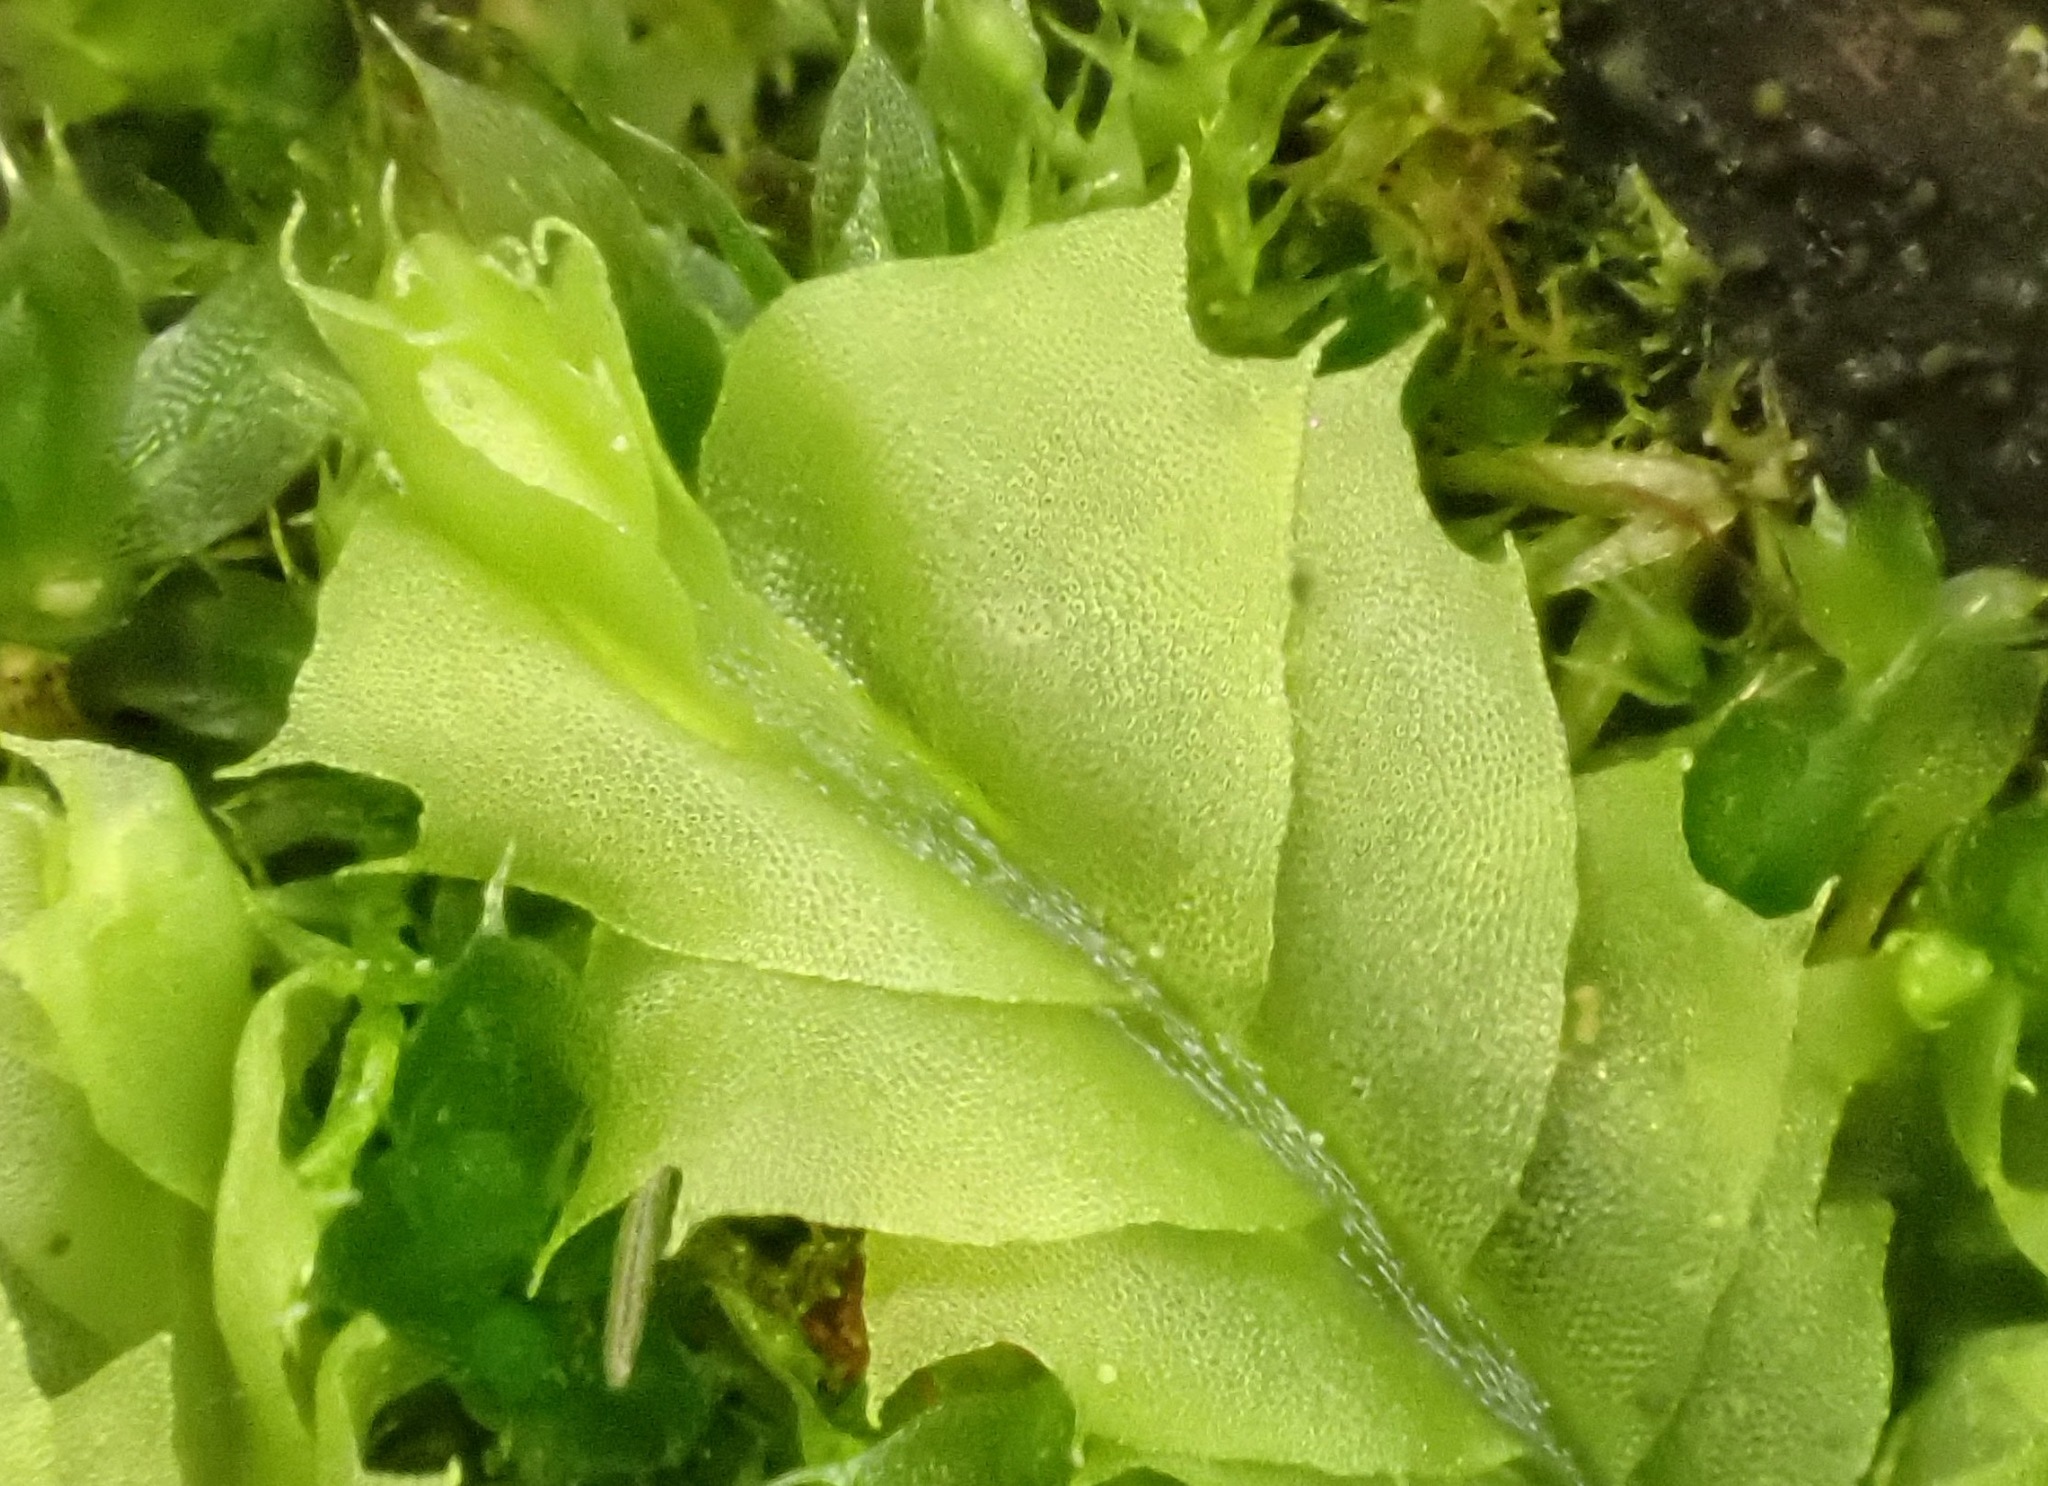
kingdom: Plantae
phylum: Marchantiophyta
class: Jungermanniopsida
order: Jungermanniales
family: Lophocoleaceae
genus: Lophocolea
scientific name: Lophocolea heterophylla
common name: Variable-leaved crestwort
